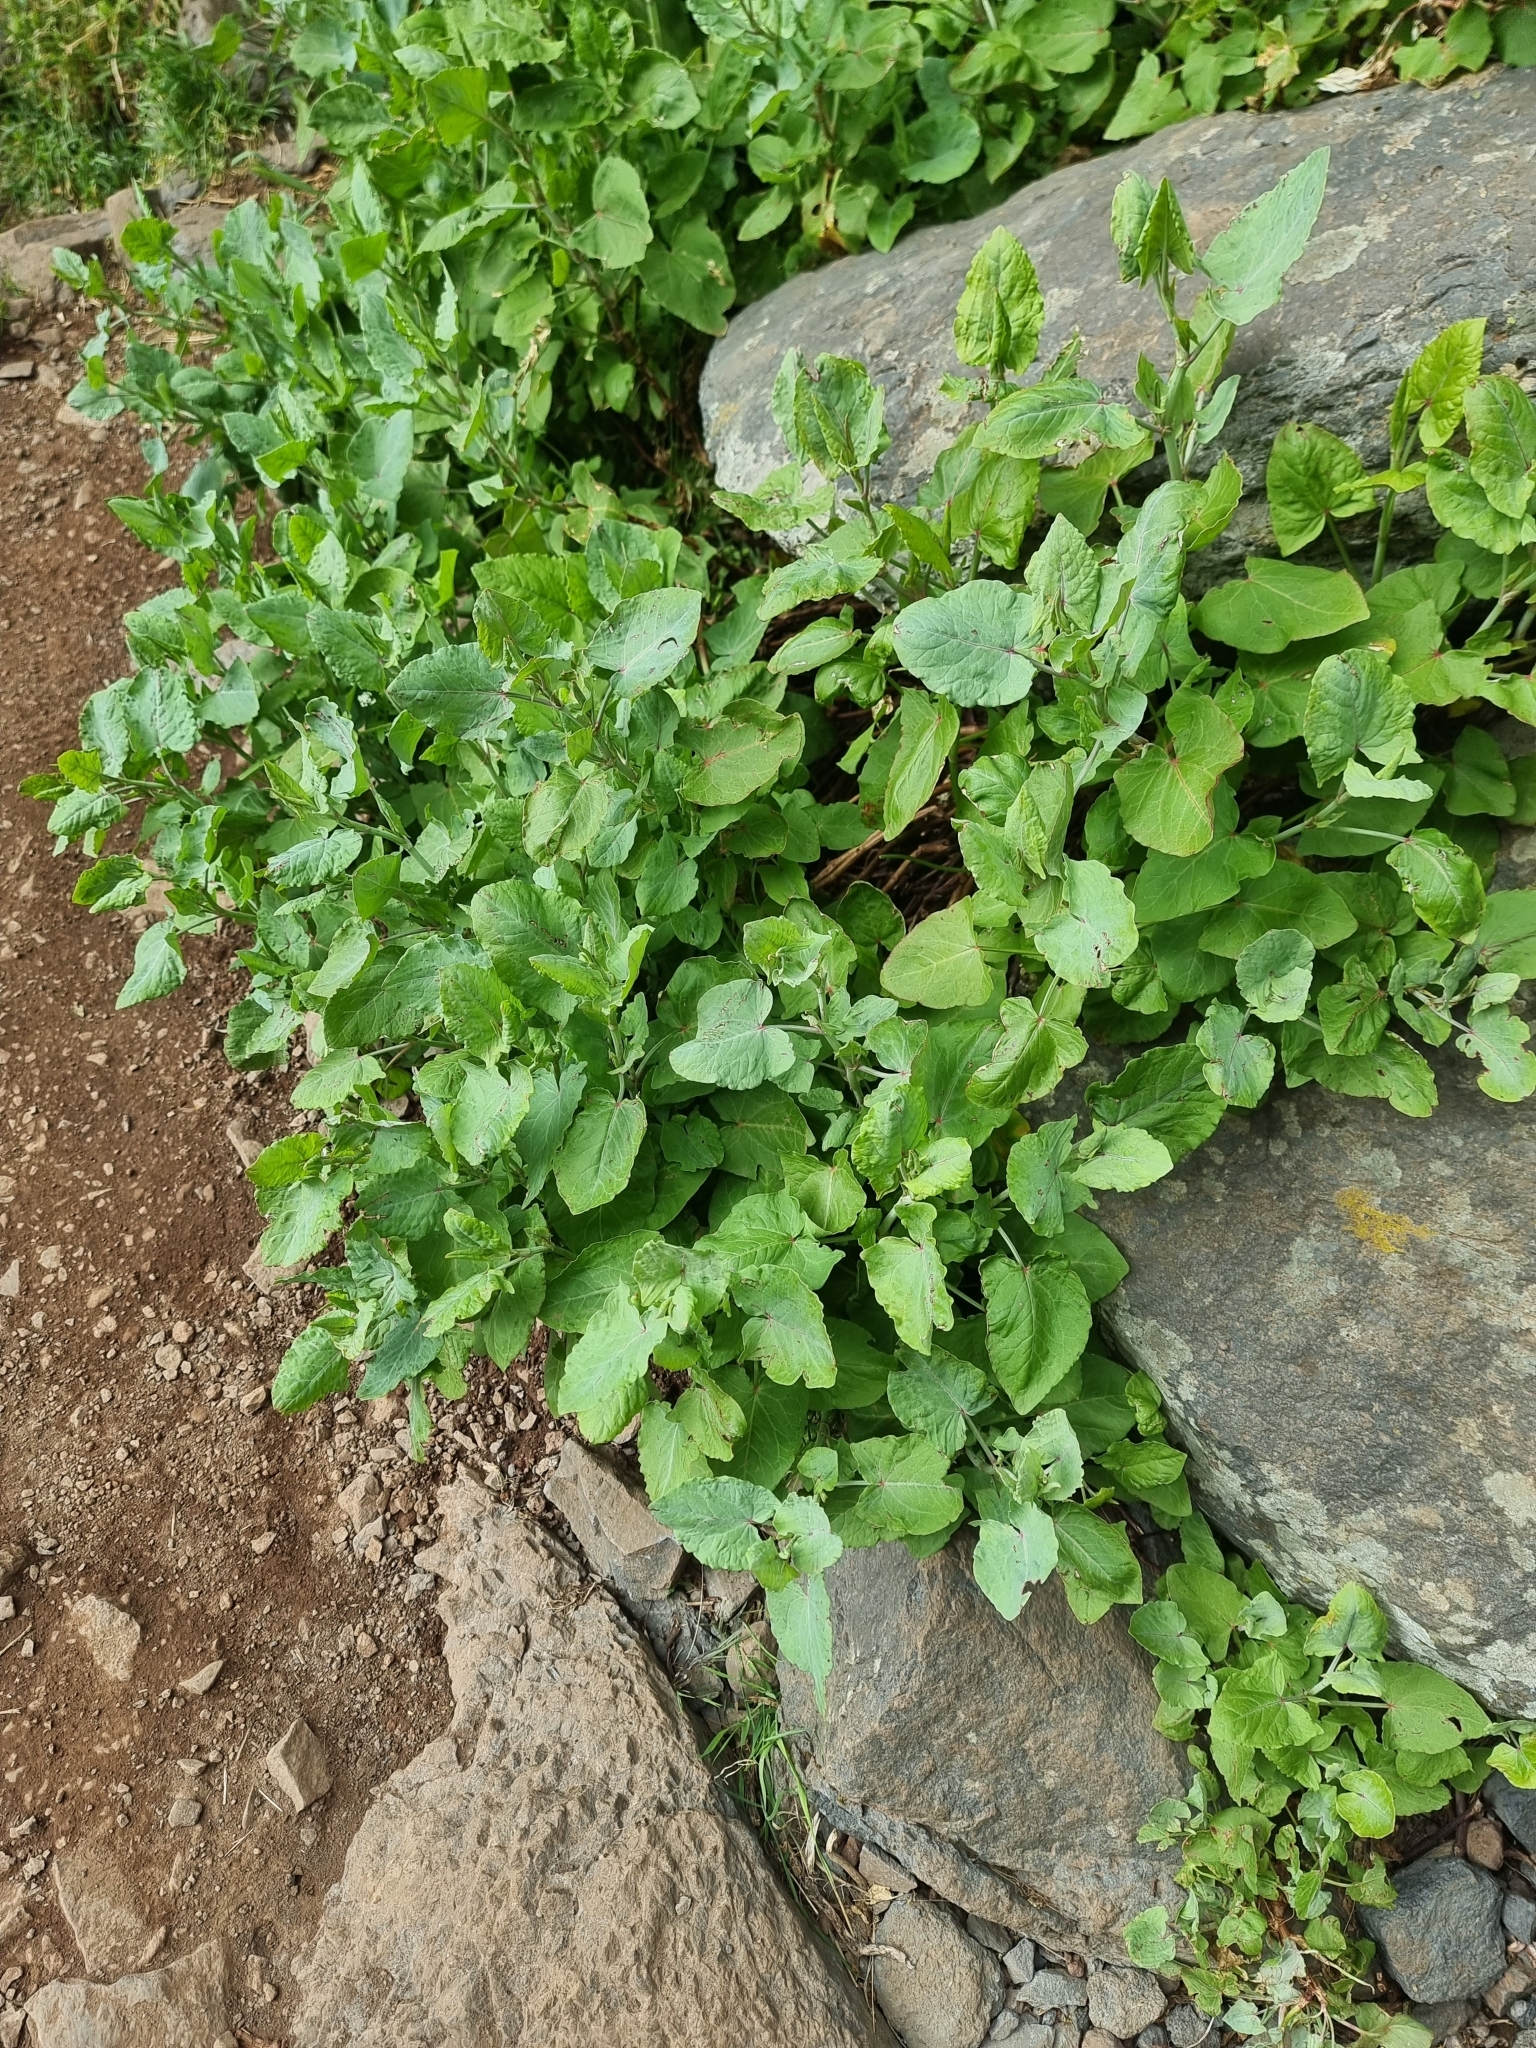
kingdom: Plantae
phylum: Tracheophyta
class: Magnoliopsida
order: Caryophyllales
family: Polygonaceae
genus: Rumex
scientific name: Rumex maderensis
